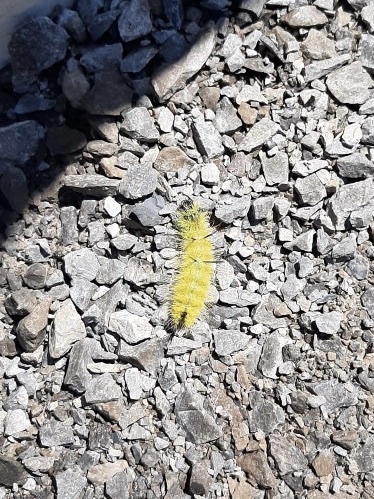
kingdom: Animalia
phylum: Arthropoda
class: Insecta
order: Lepidoptera
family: Noctuidae
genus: Acronicta
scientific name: Acronicta americana
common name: American dagger
